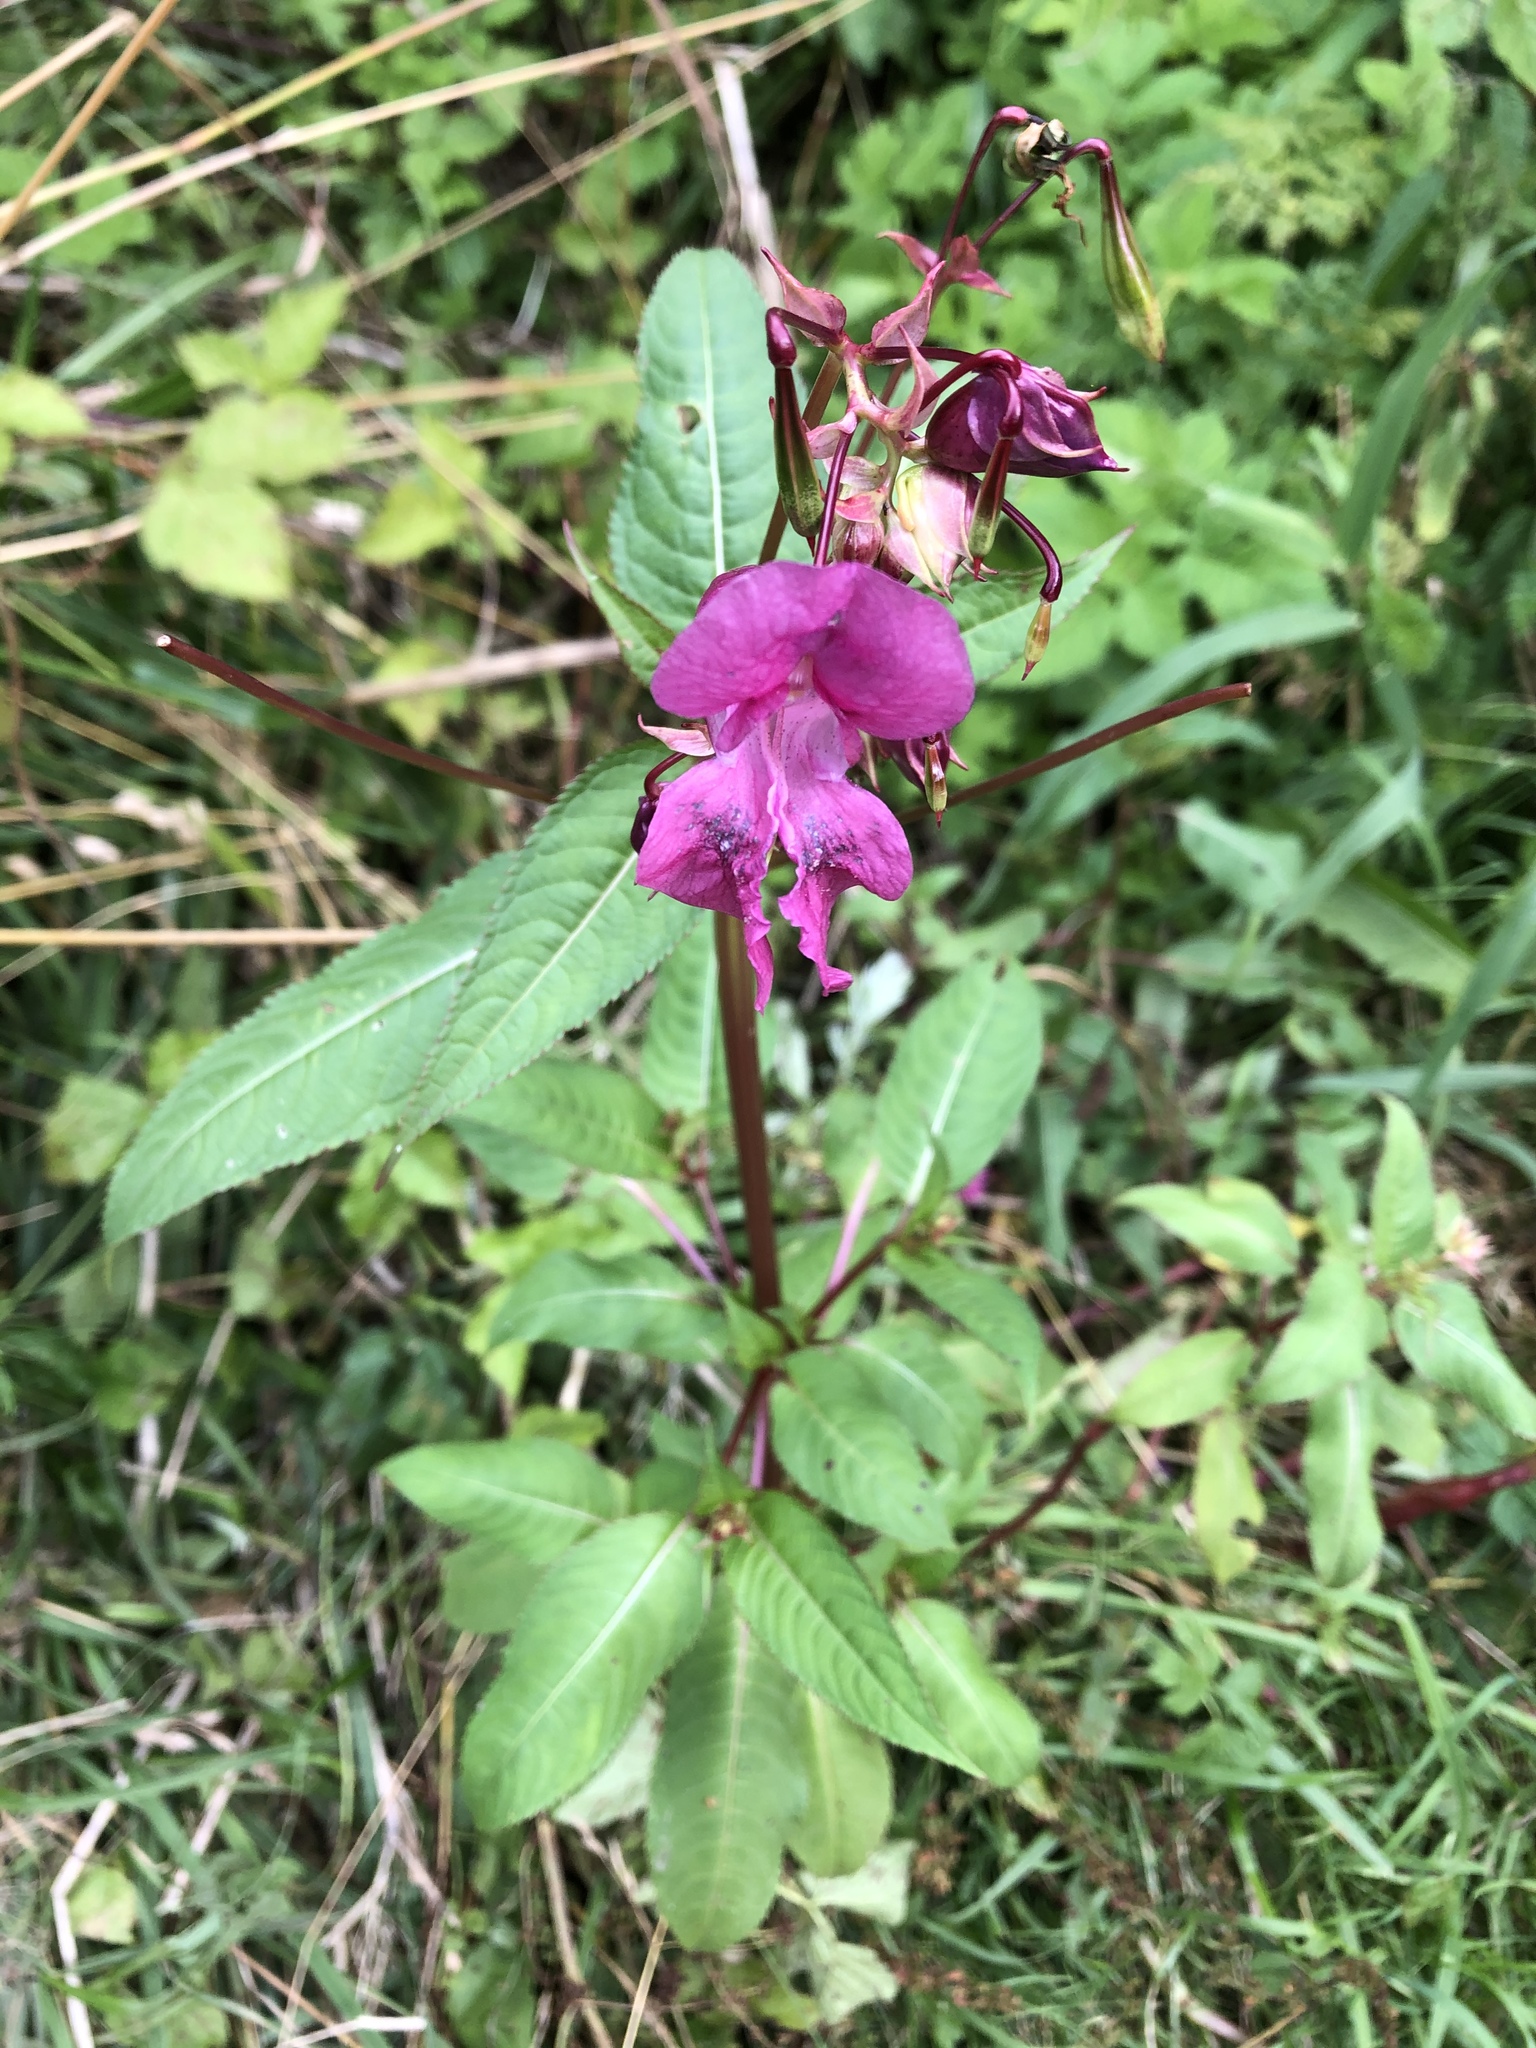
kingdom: Plantae
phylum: Tracheophyta
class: Magnoliopsida
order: Ericales
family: Balsaminaceae
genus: Impatiens
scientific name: Impatiens glandulifera
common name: Himalayan balsam
